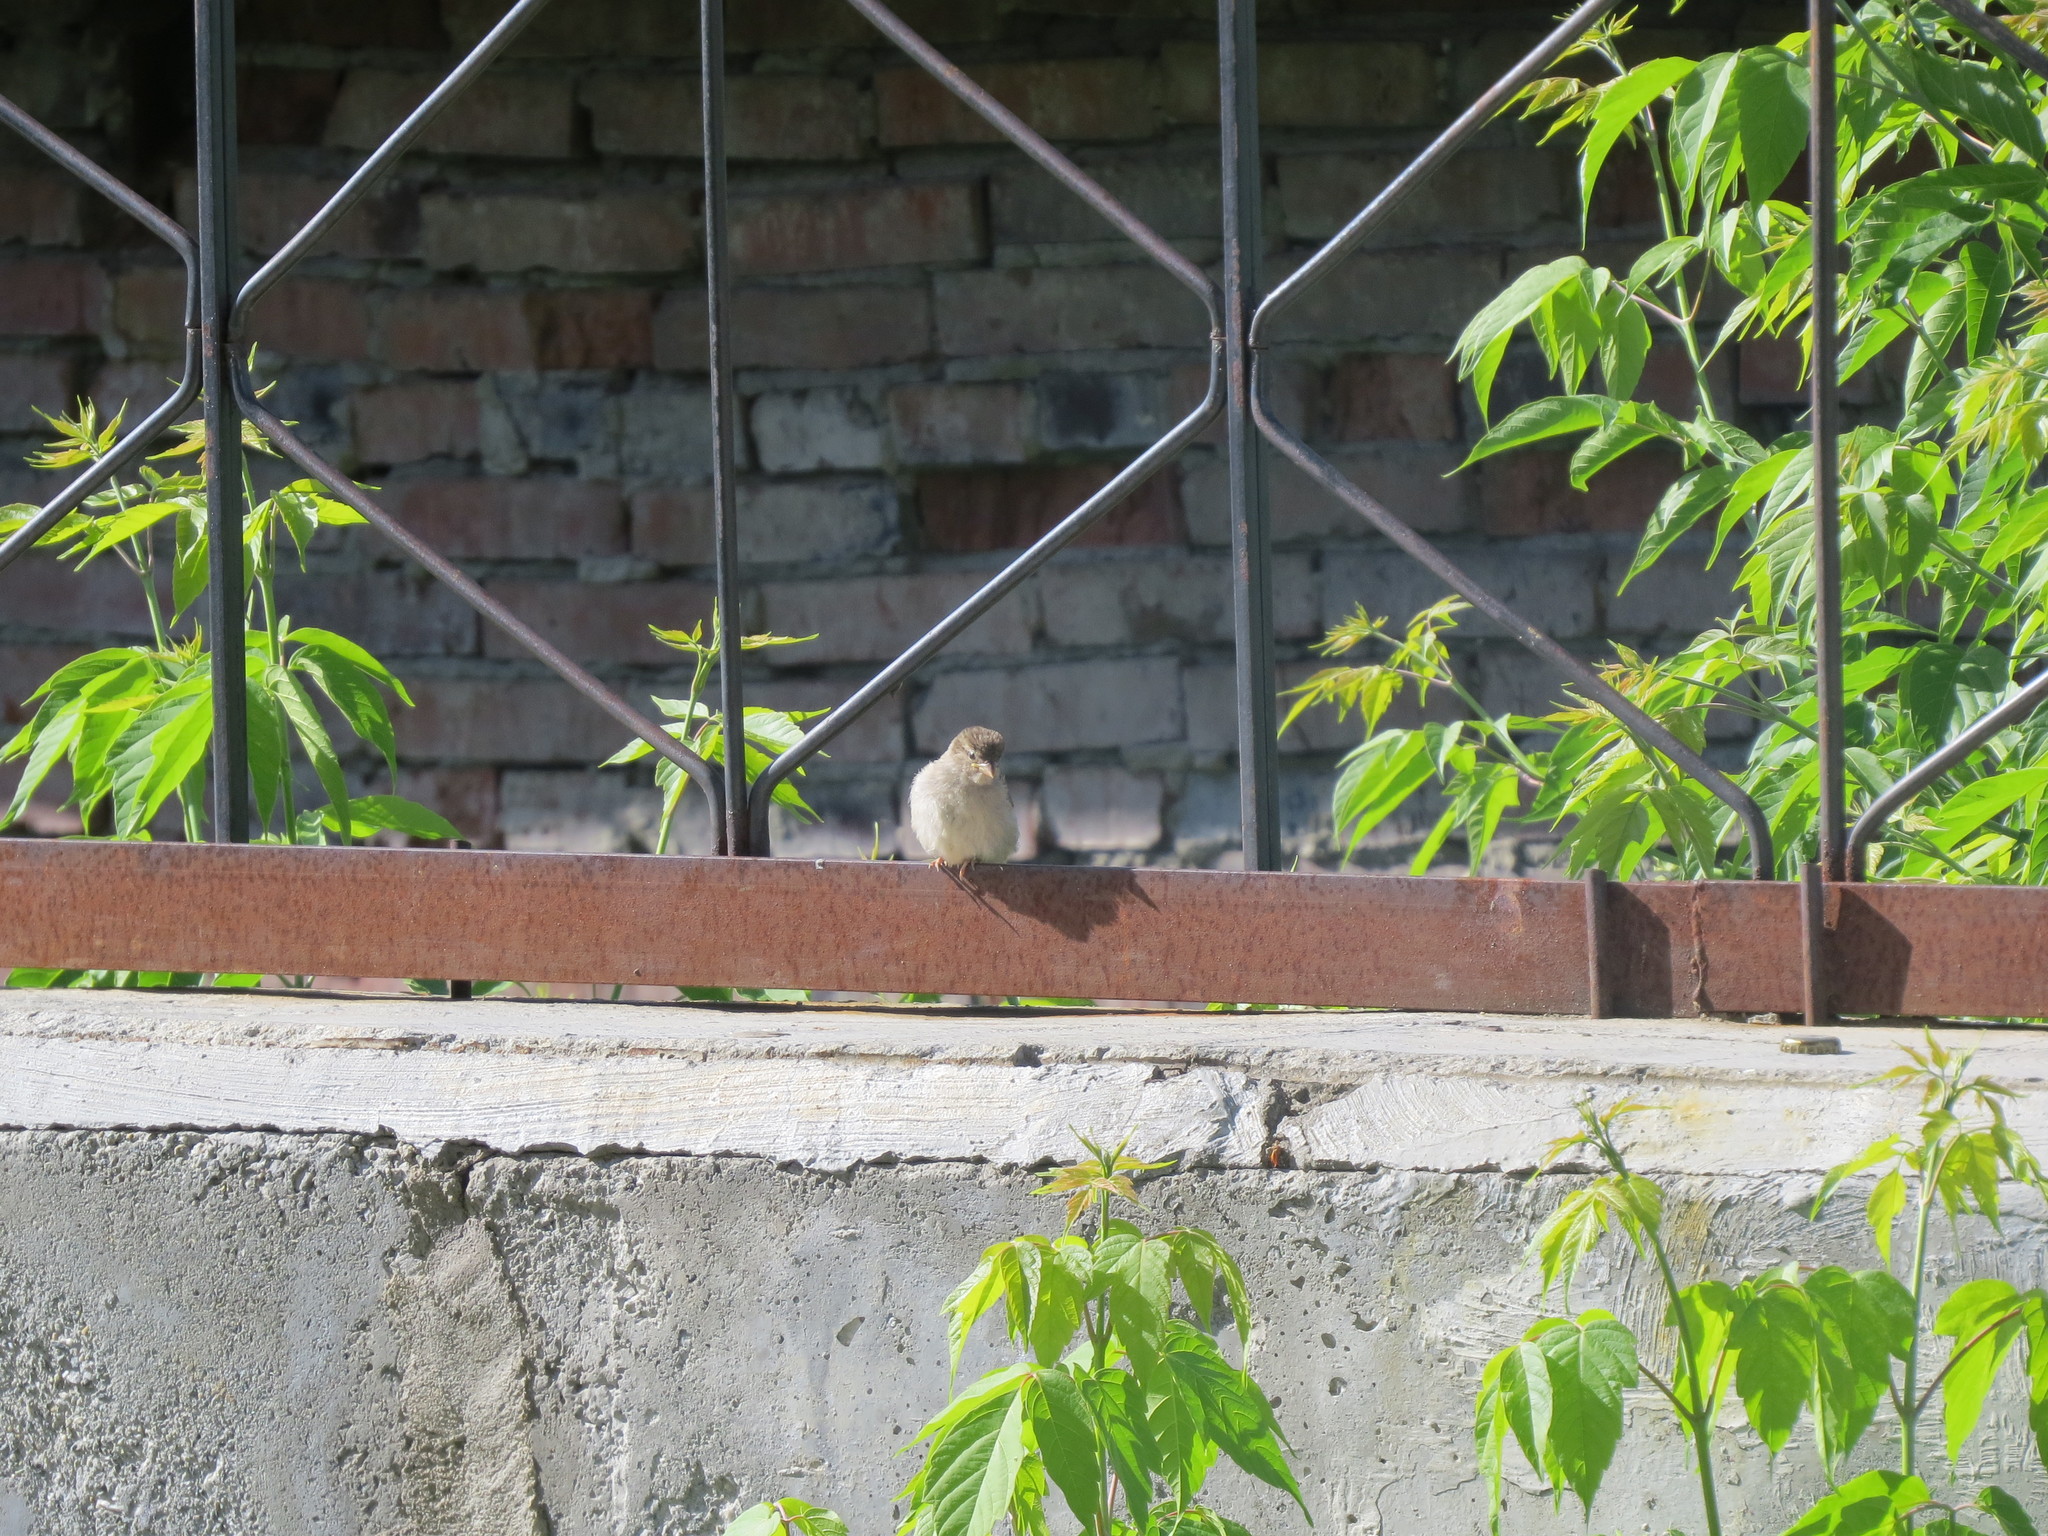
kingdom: Animalia
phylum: Chordata
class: Aves
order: Passeriformes
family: Passeridae
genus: Passer
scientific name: Passer domesticus
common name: House sparrow
